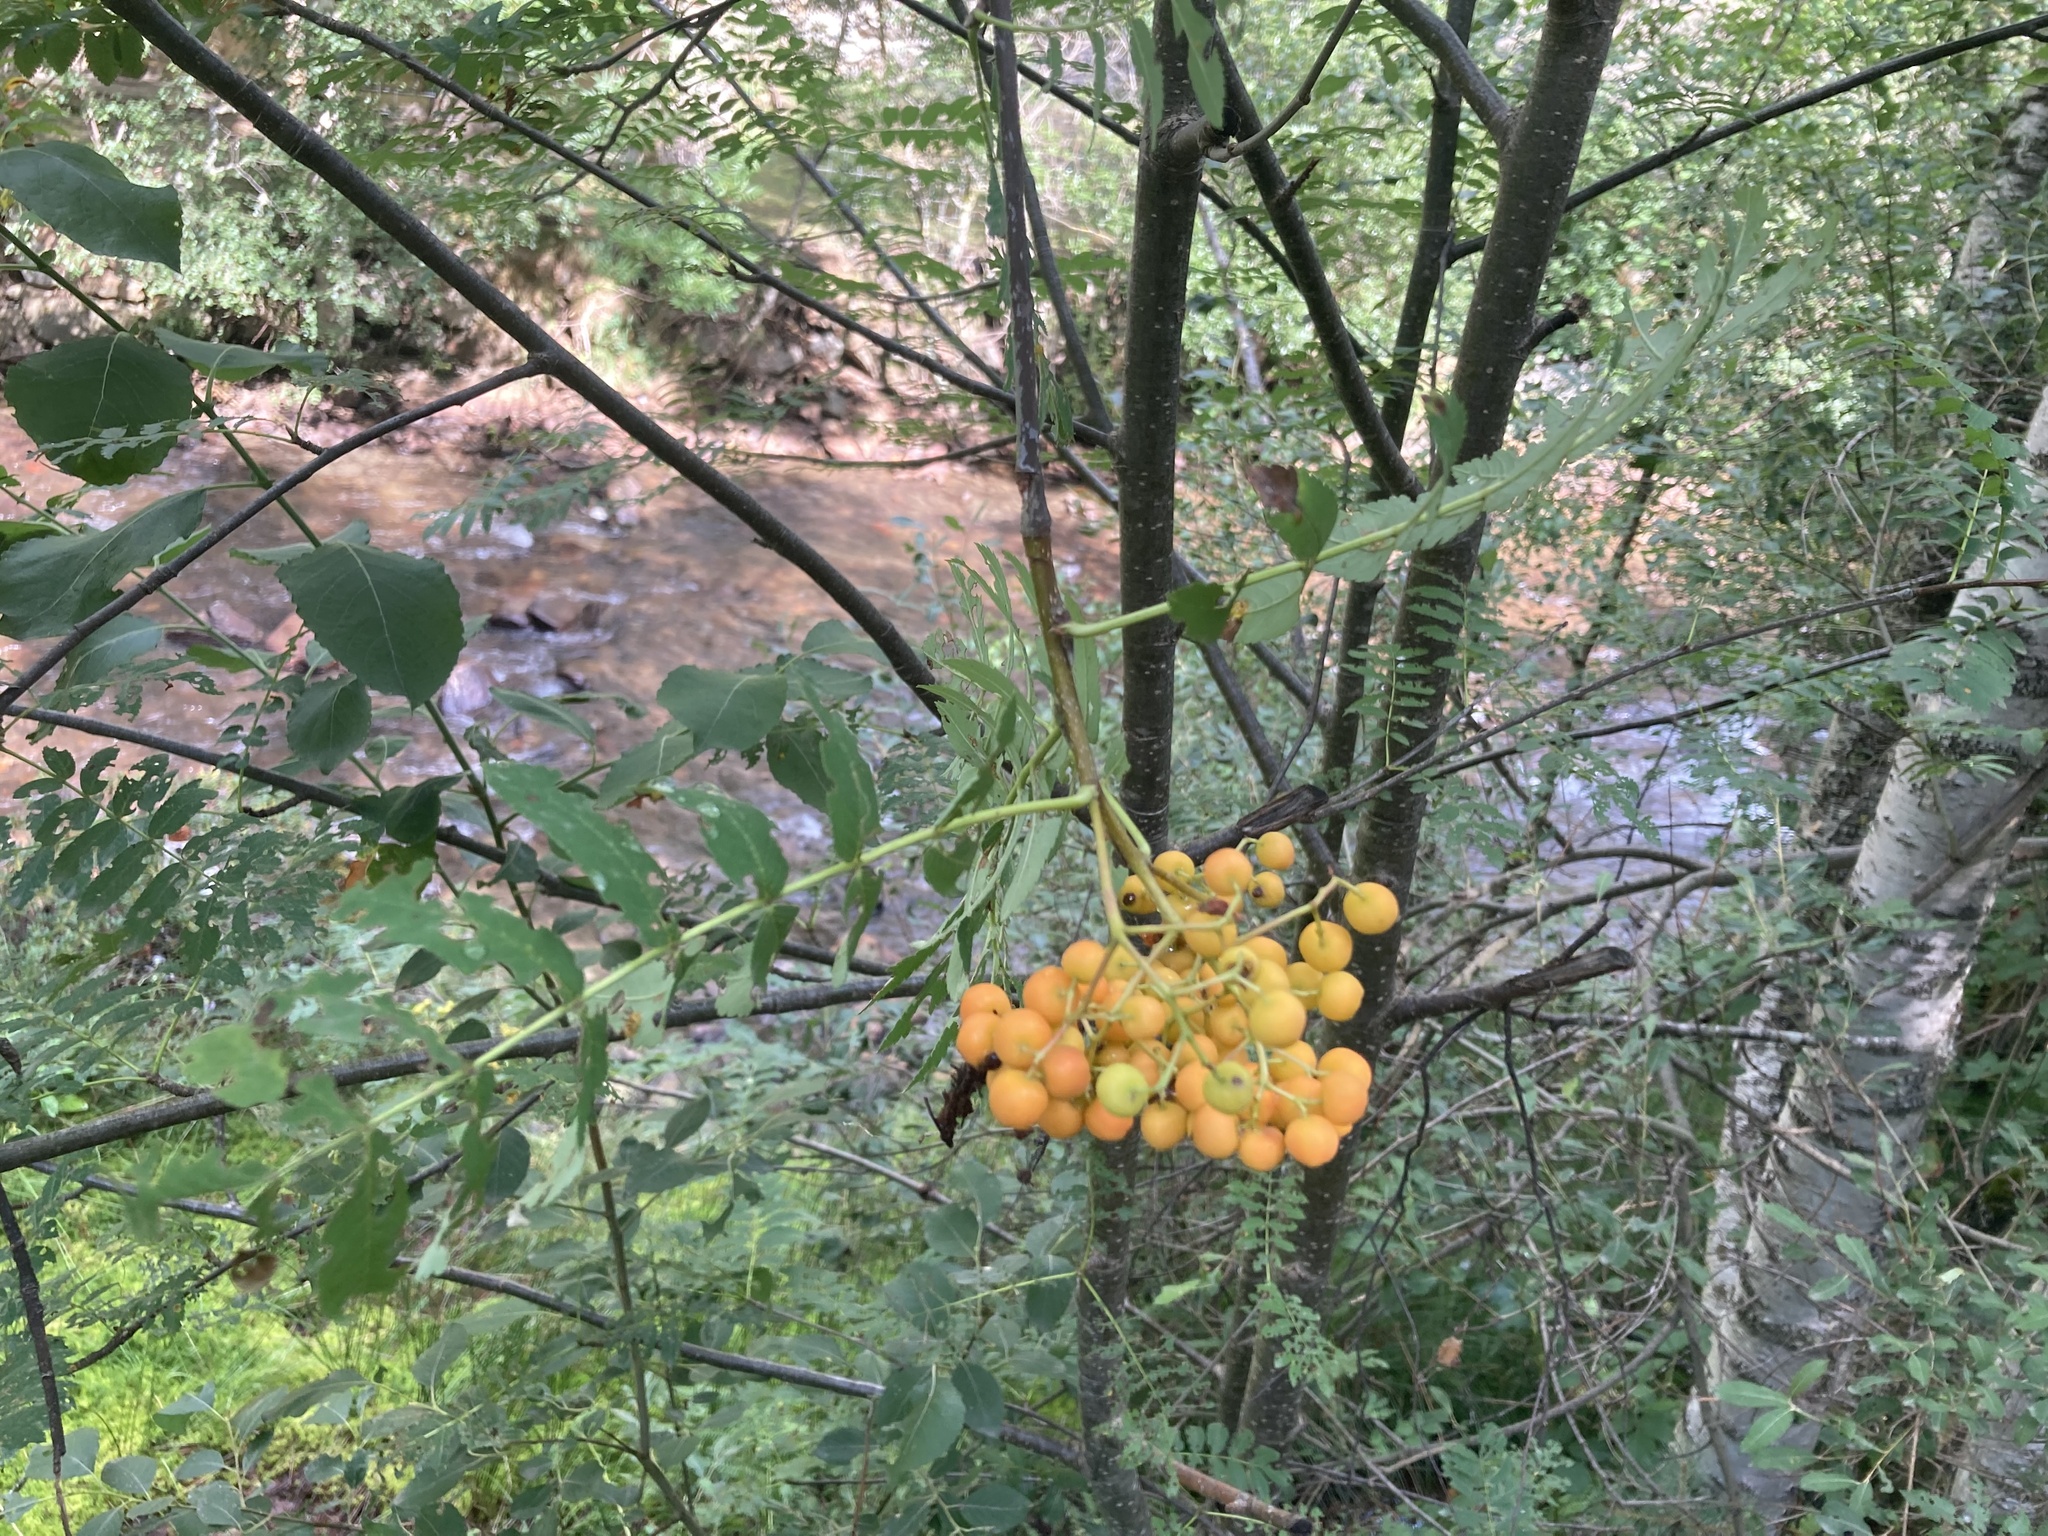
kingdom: Plantae
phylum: Tracheophyta
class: Magnoliopsida
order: Rosales
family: Rosaceae
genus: Sorbus
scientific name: Sorbus aucuparia
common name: Rowan
